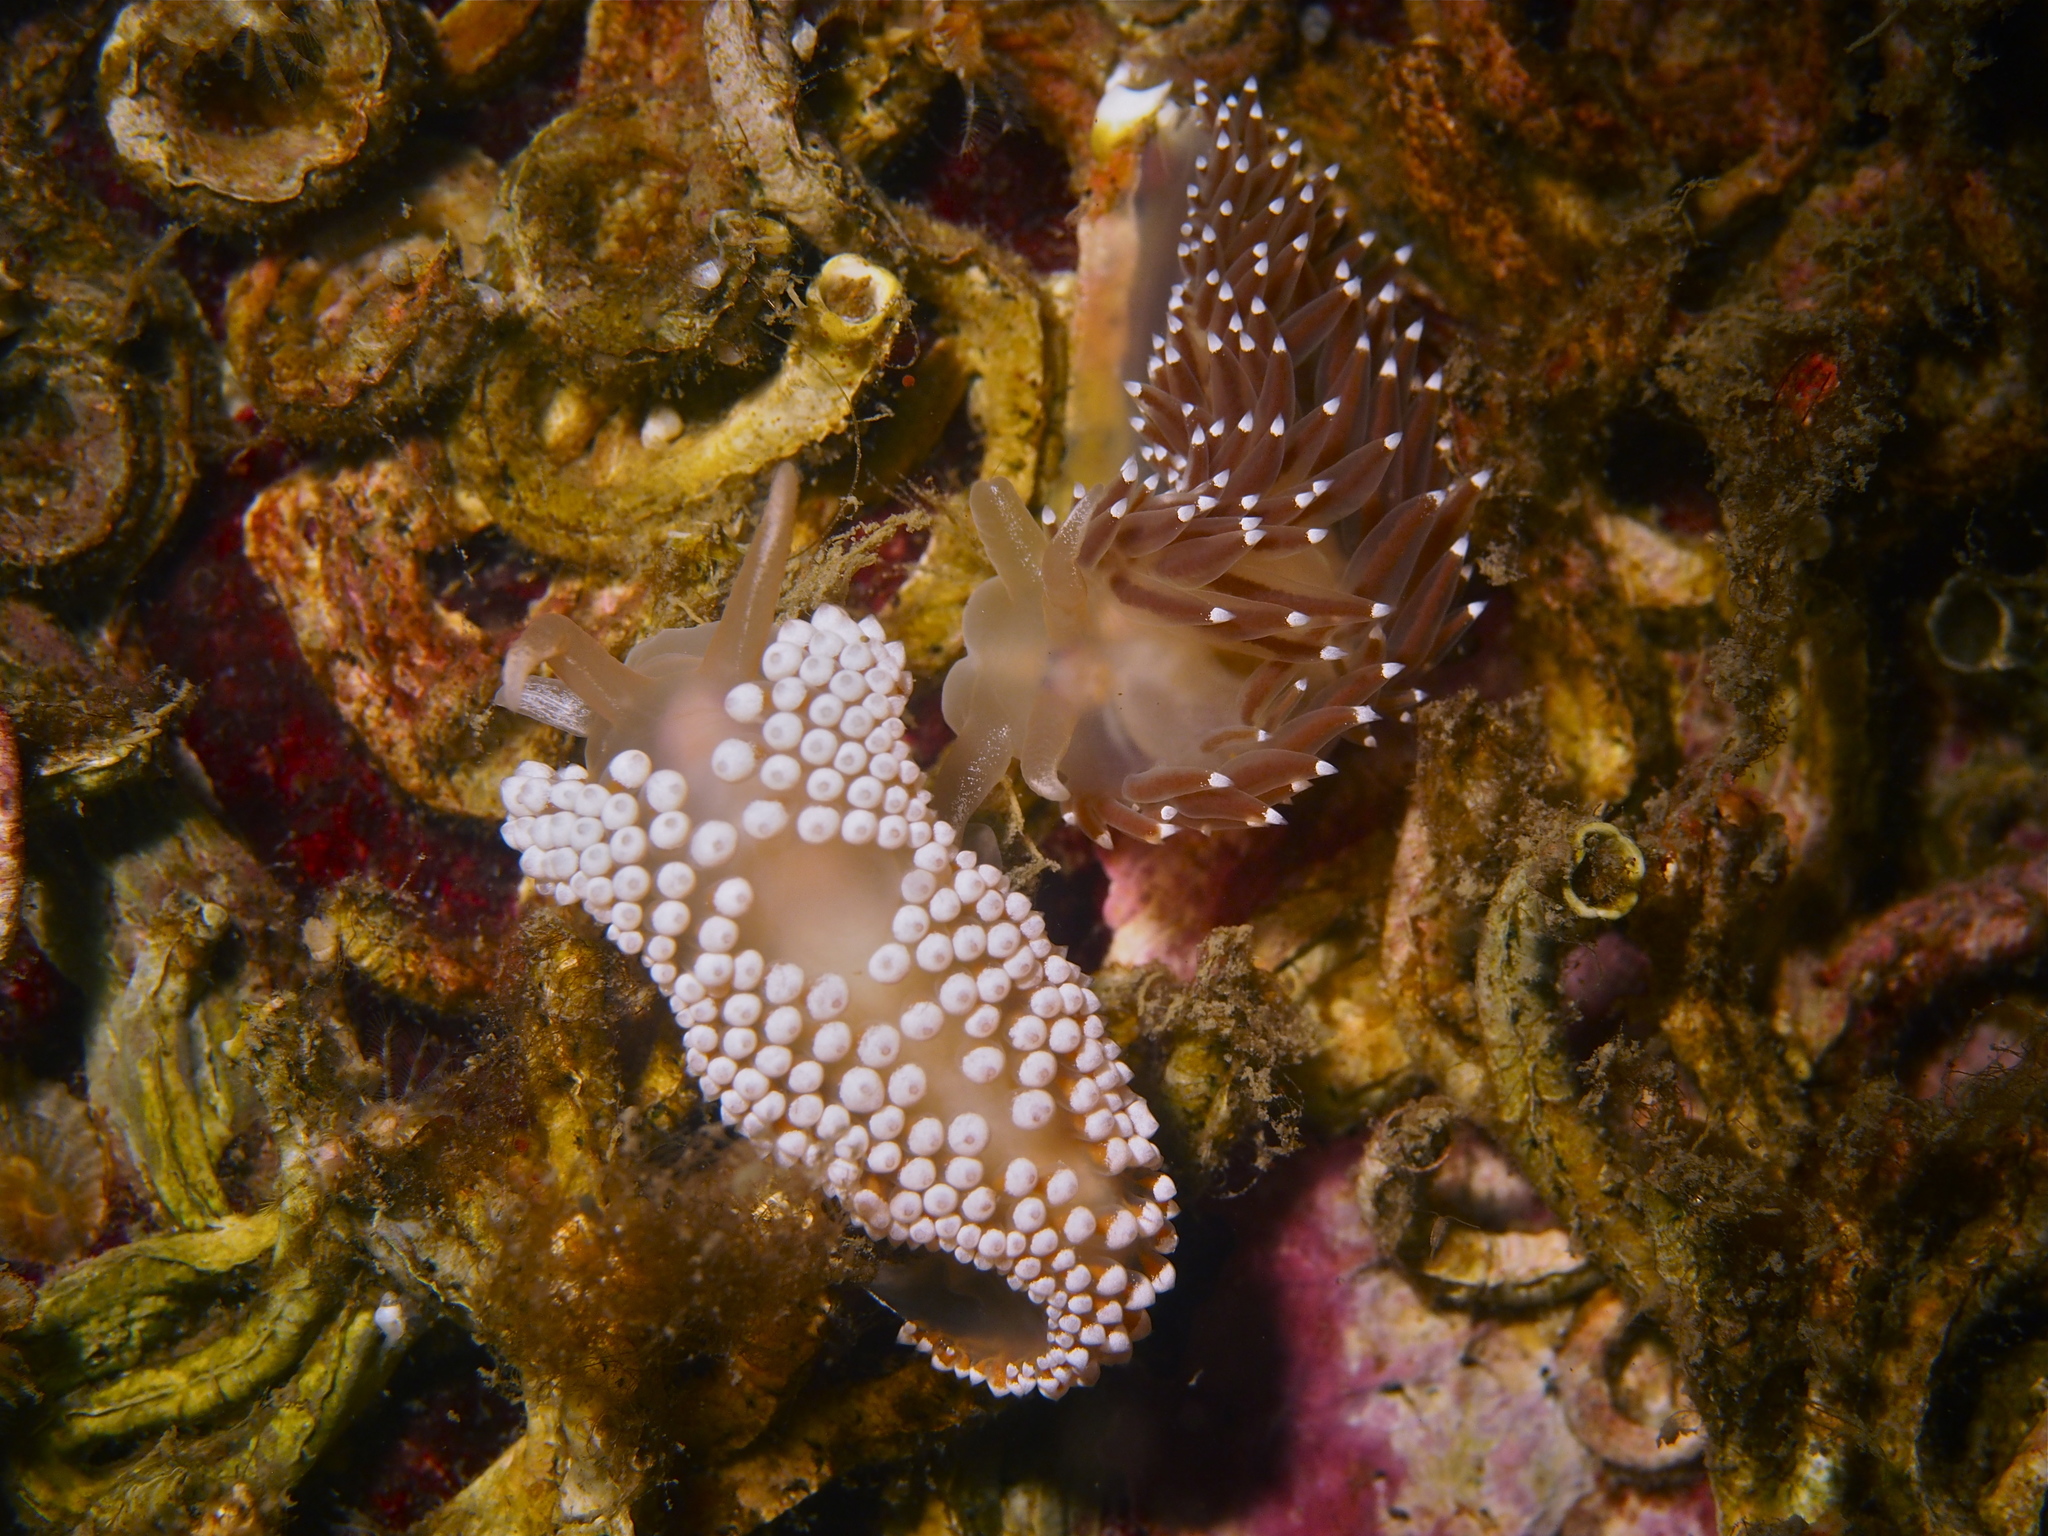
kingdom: Animalia
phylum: Mollusca
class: Gastropoda
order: Nudibranchia
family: Coryphellidae
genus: Coryphella
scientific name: Coryphella verrucosa
